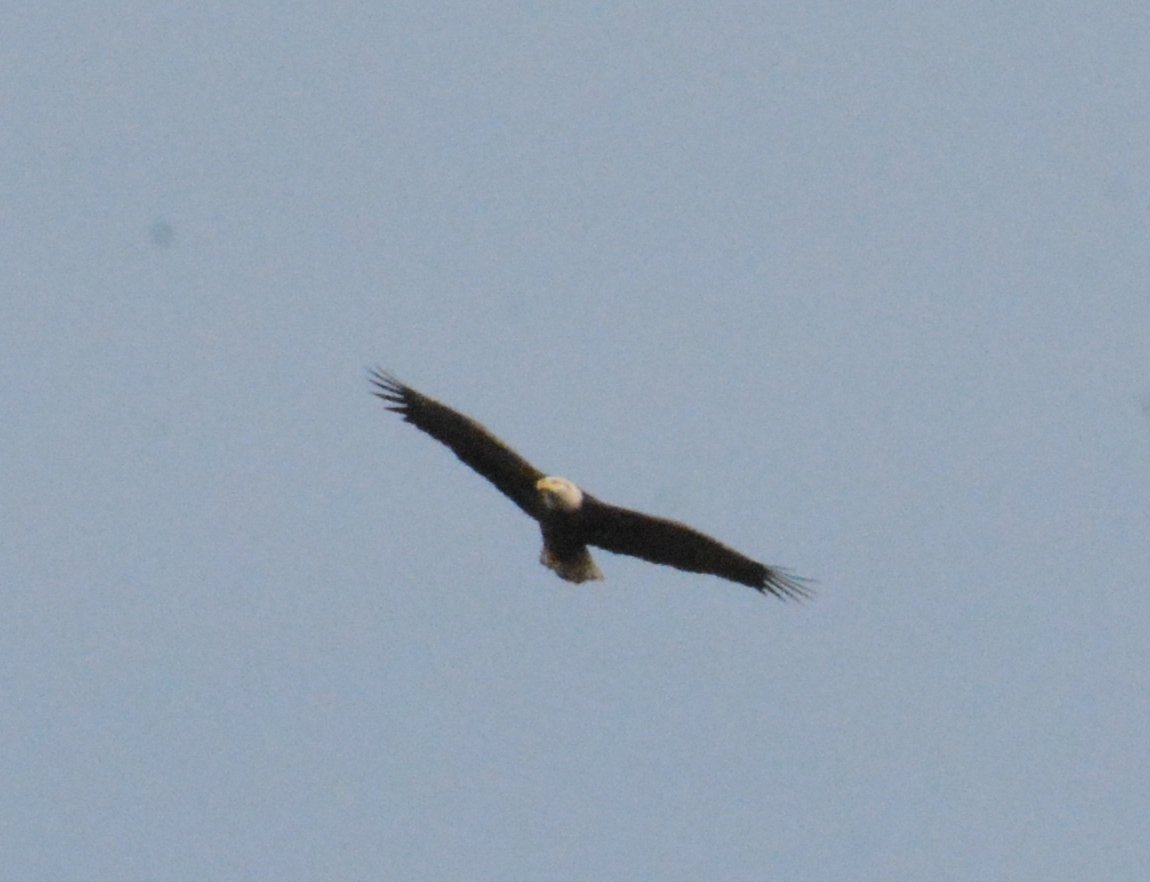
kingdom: Animalia
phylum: Chordata
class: Aves
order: Accipitriformes
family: Accipitridae
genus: Haliaeetus
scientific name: Haliaeetus leucocephalus
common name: Bald eagle
